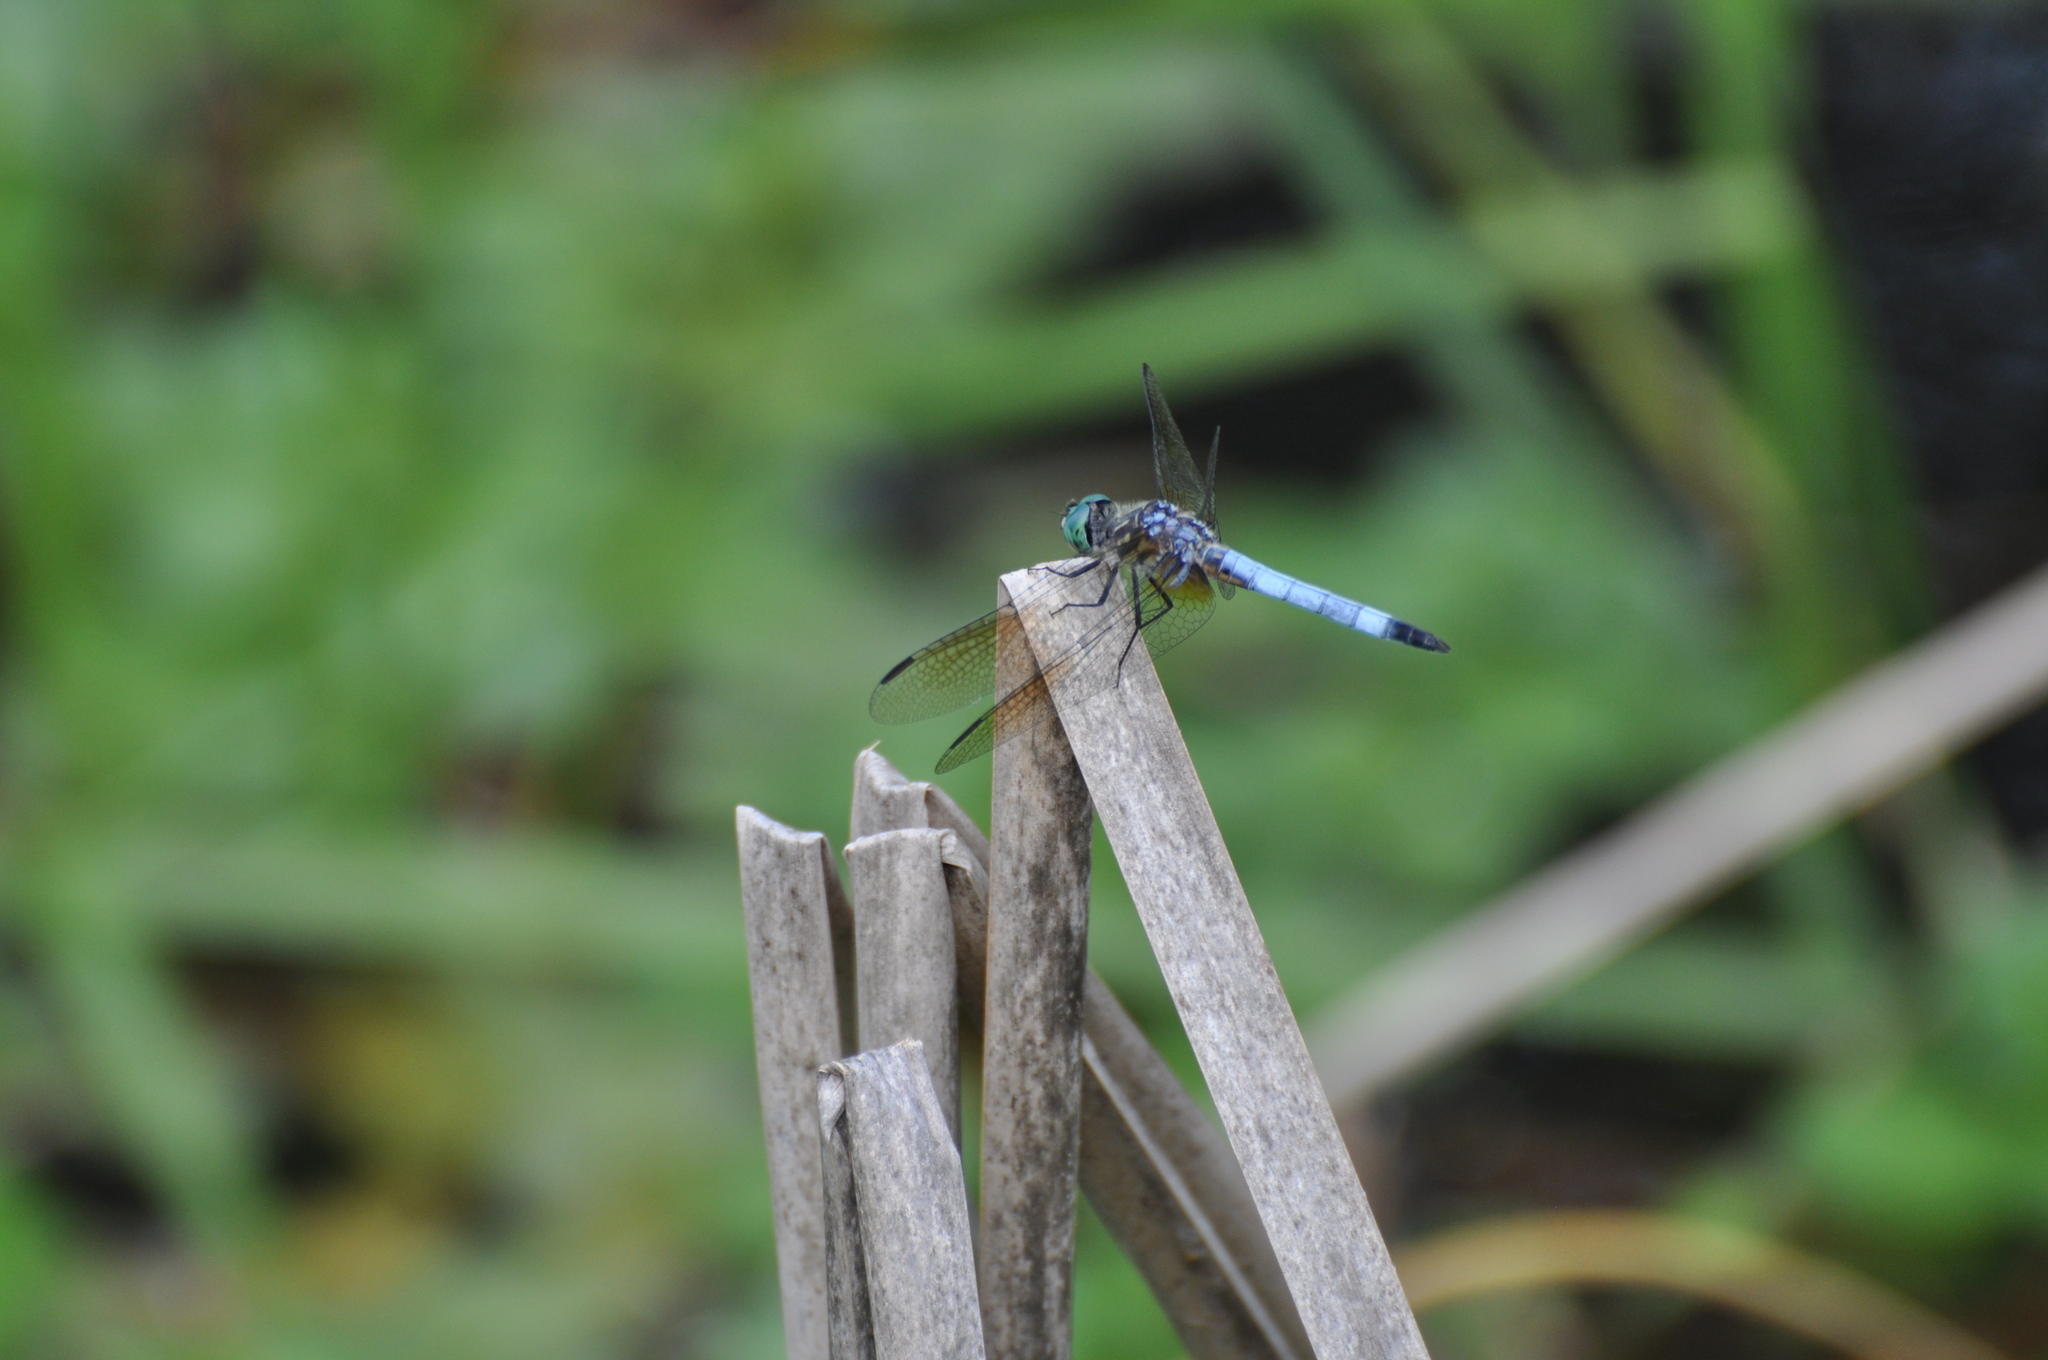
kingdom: Animalia
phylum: Arthropoda
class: Insecta
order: Odonata
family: Libellulidae
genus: Pachydiplax
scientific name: Pachydiplax longipennis
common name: Blue dasher
